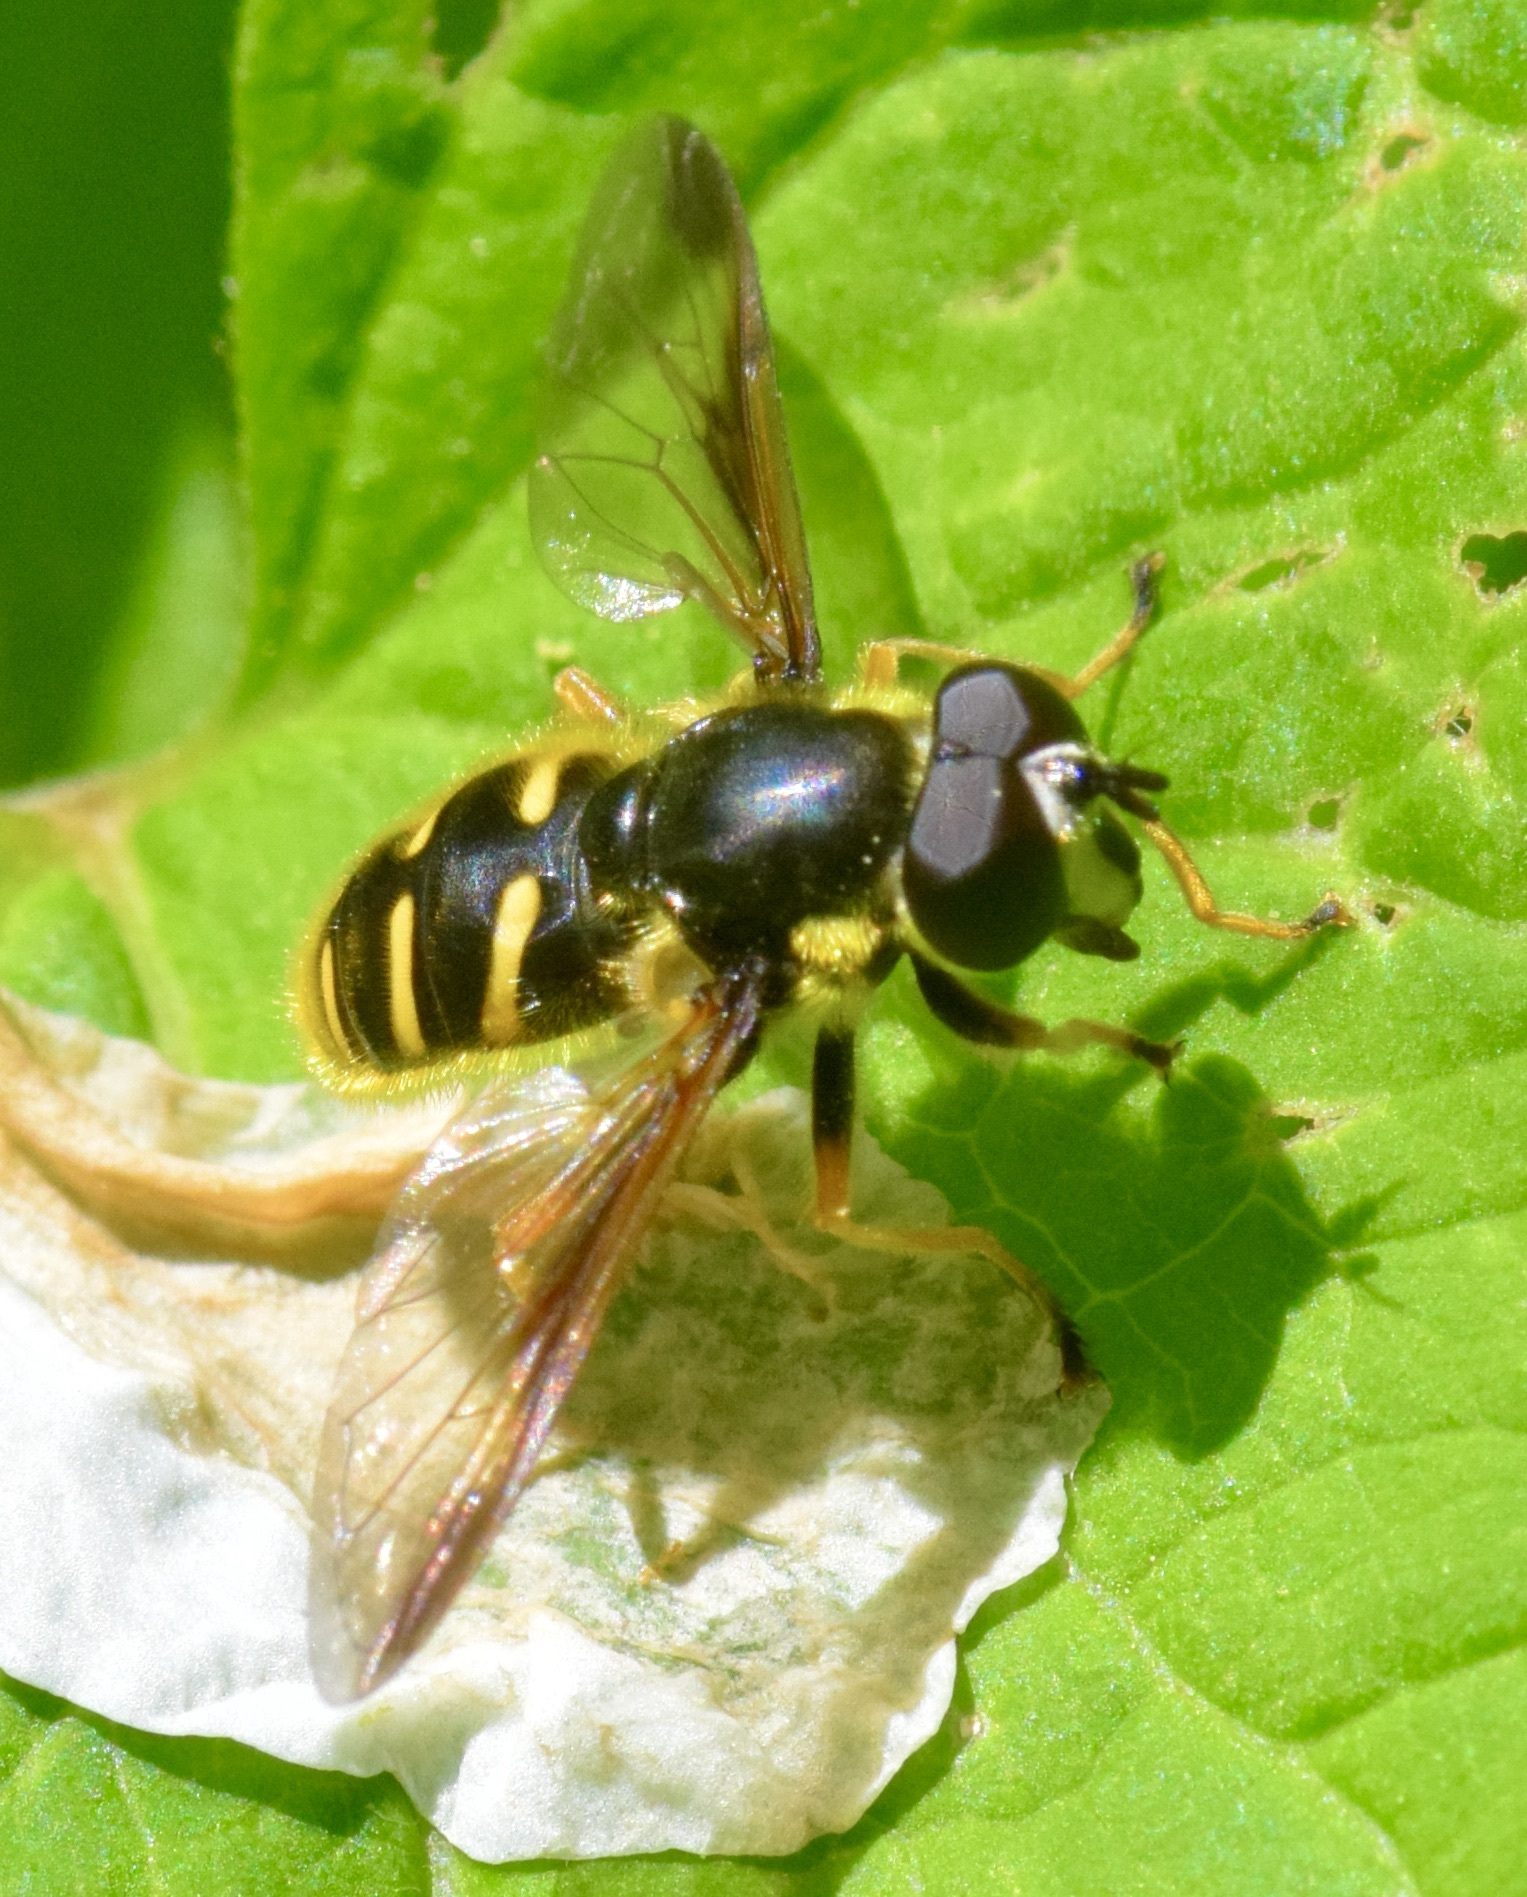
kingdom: Animalia
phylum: Arthropoda
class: Insecta
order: Diptera
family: Syrphidae
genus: Sericomyia
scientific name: Sericomyia chrysotoxoides
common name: Oblique-banded pond fly
